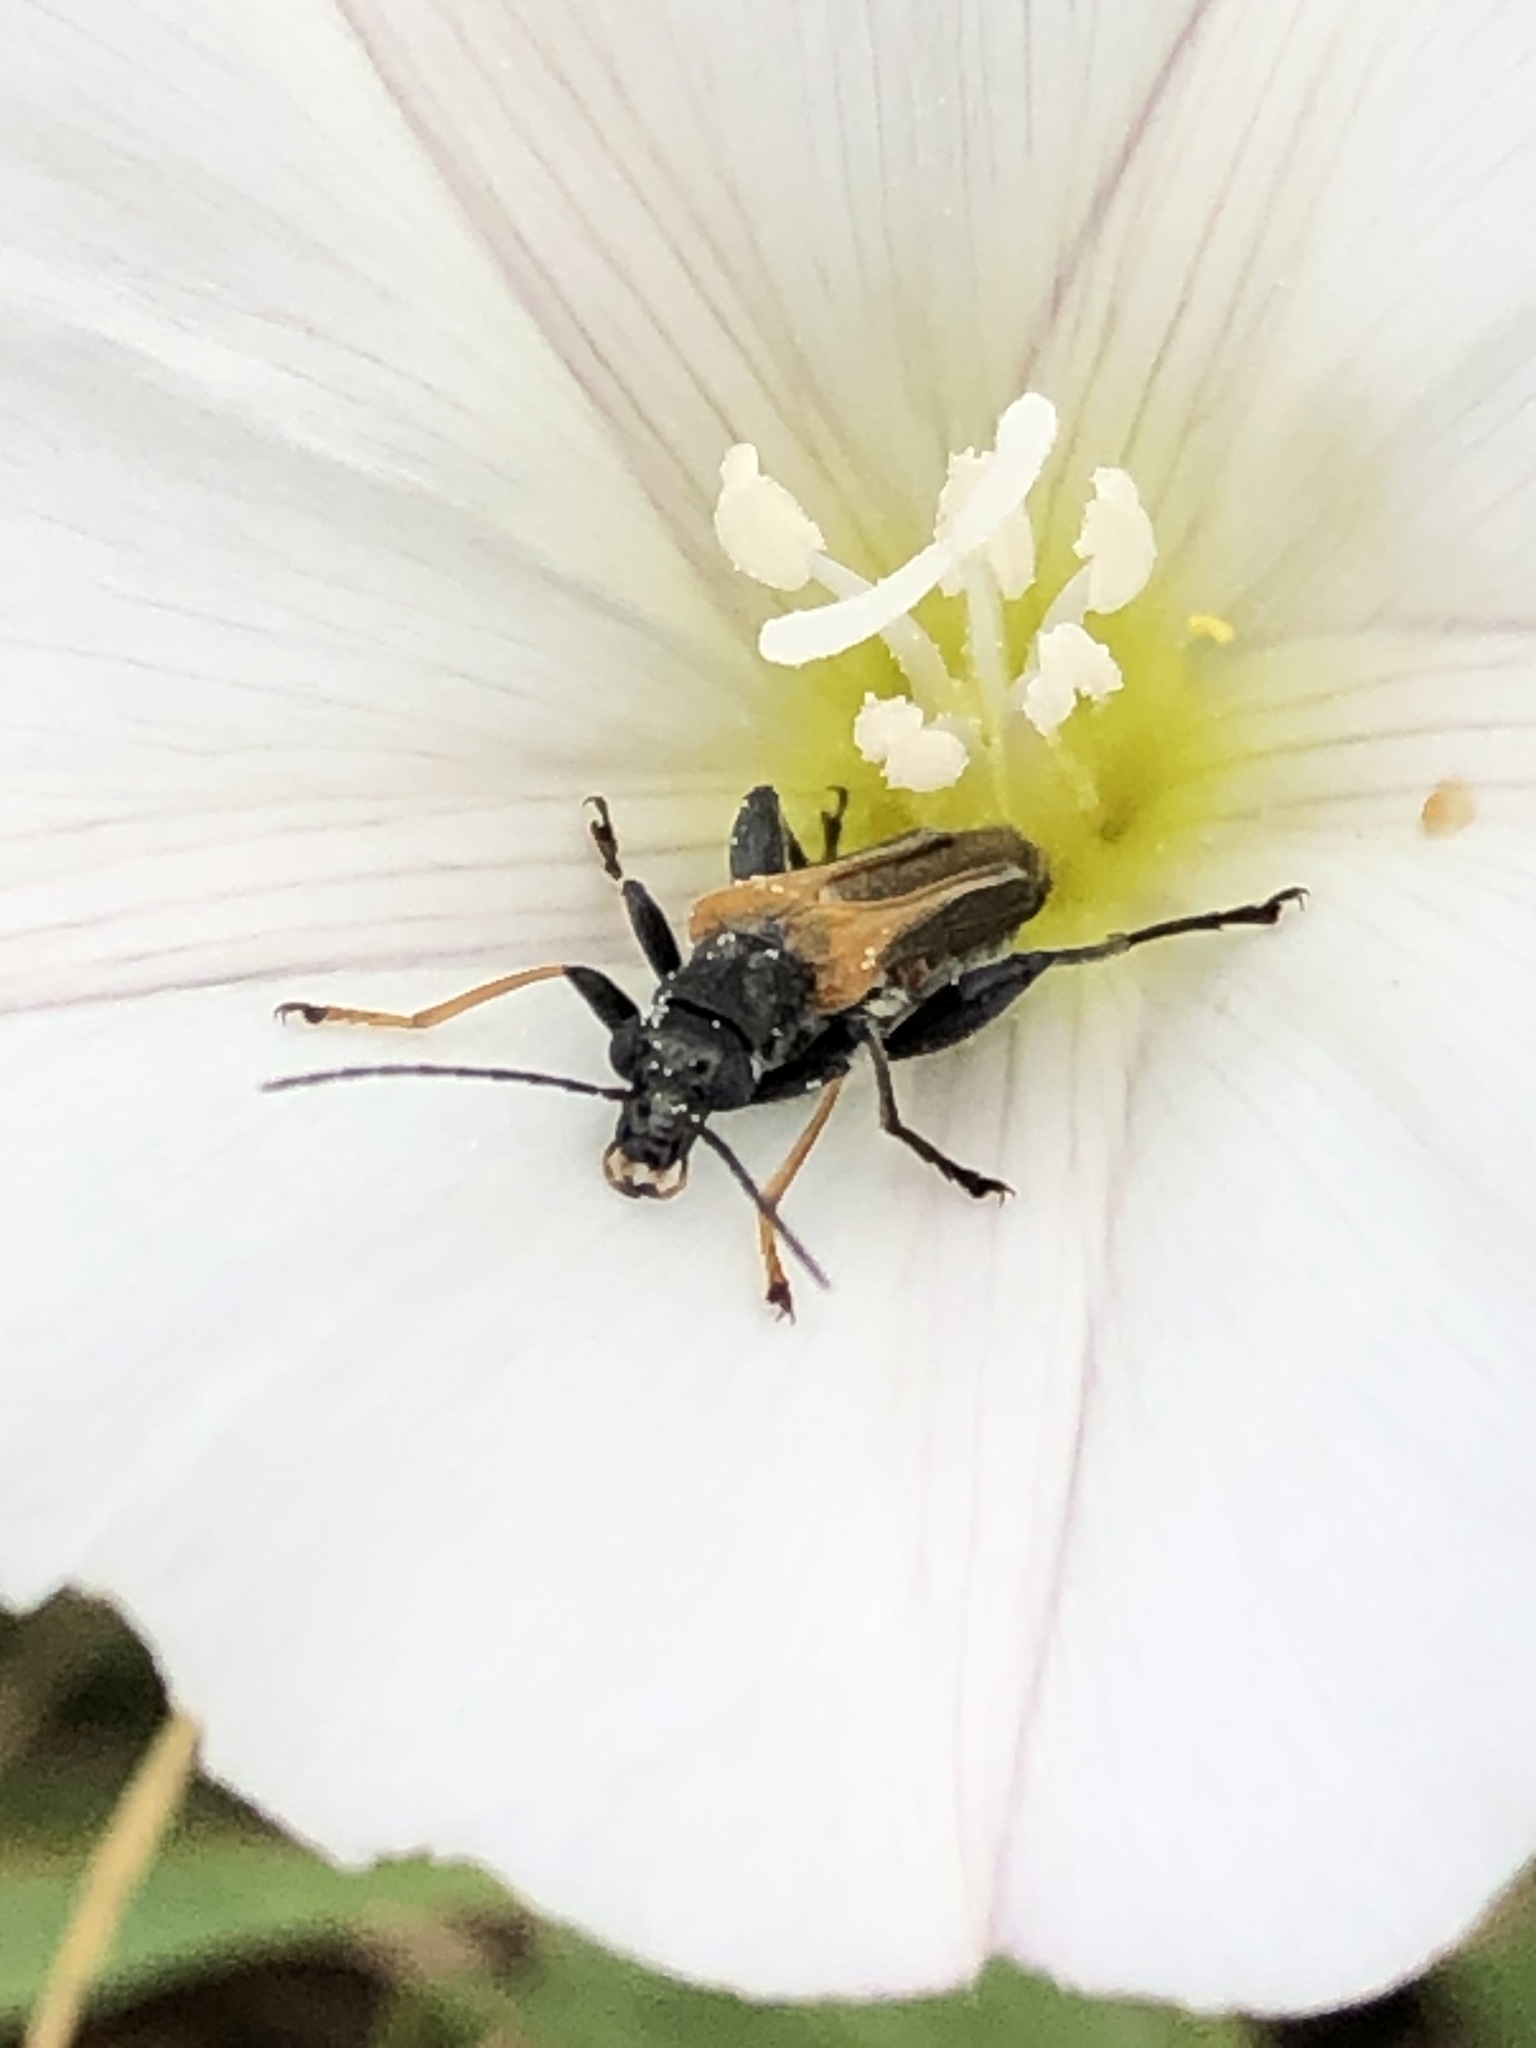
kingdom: Animalia
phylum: Arthropoda
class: Insecta
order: Coleoptera
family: Oedemeridae
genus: Oedemera
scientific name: Oedemera simplex
